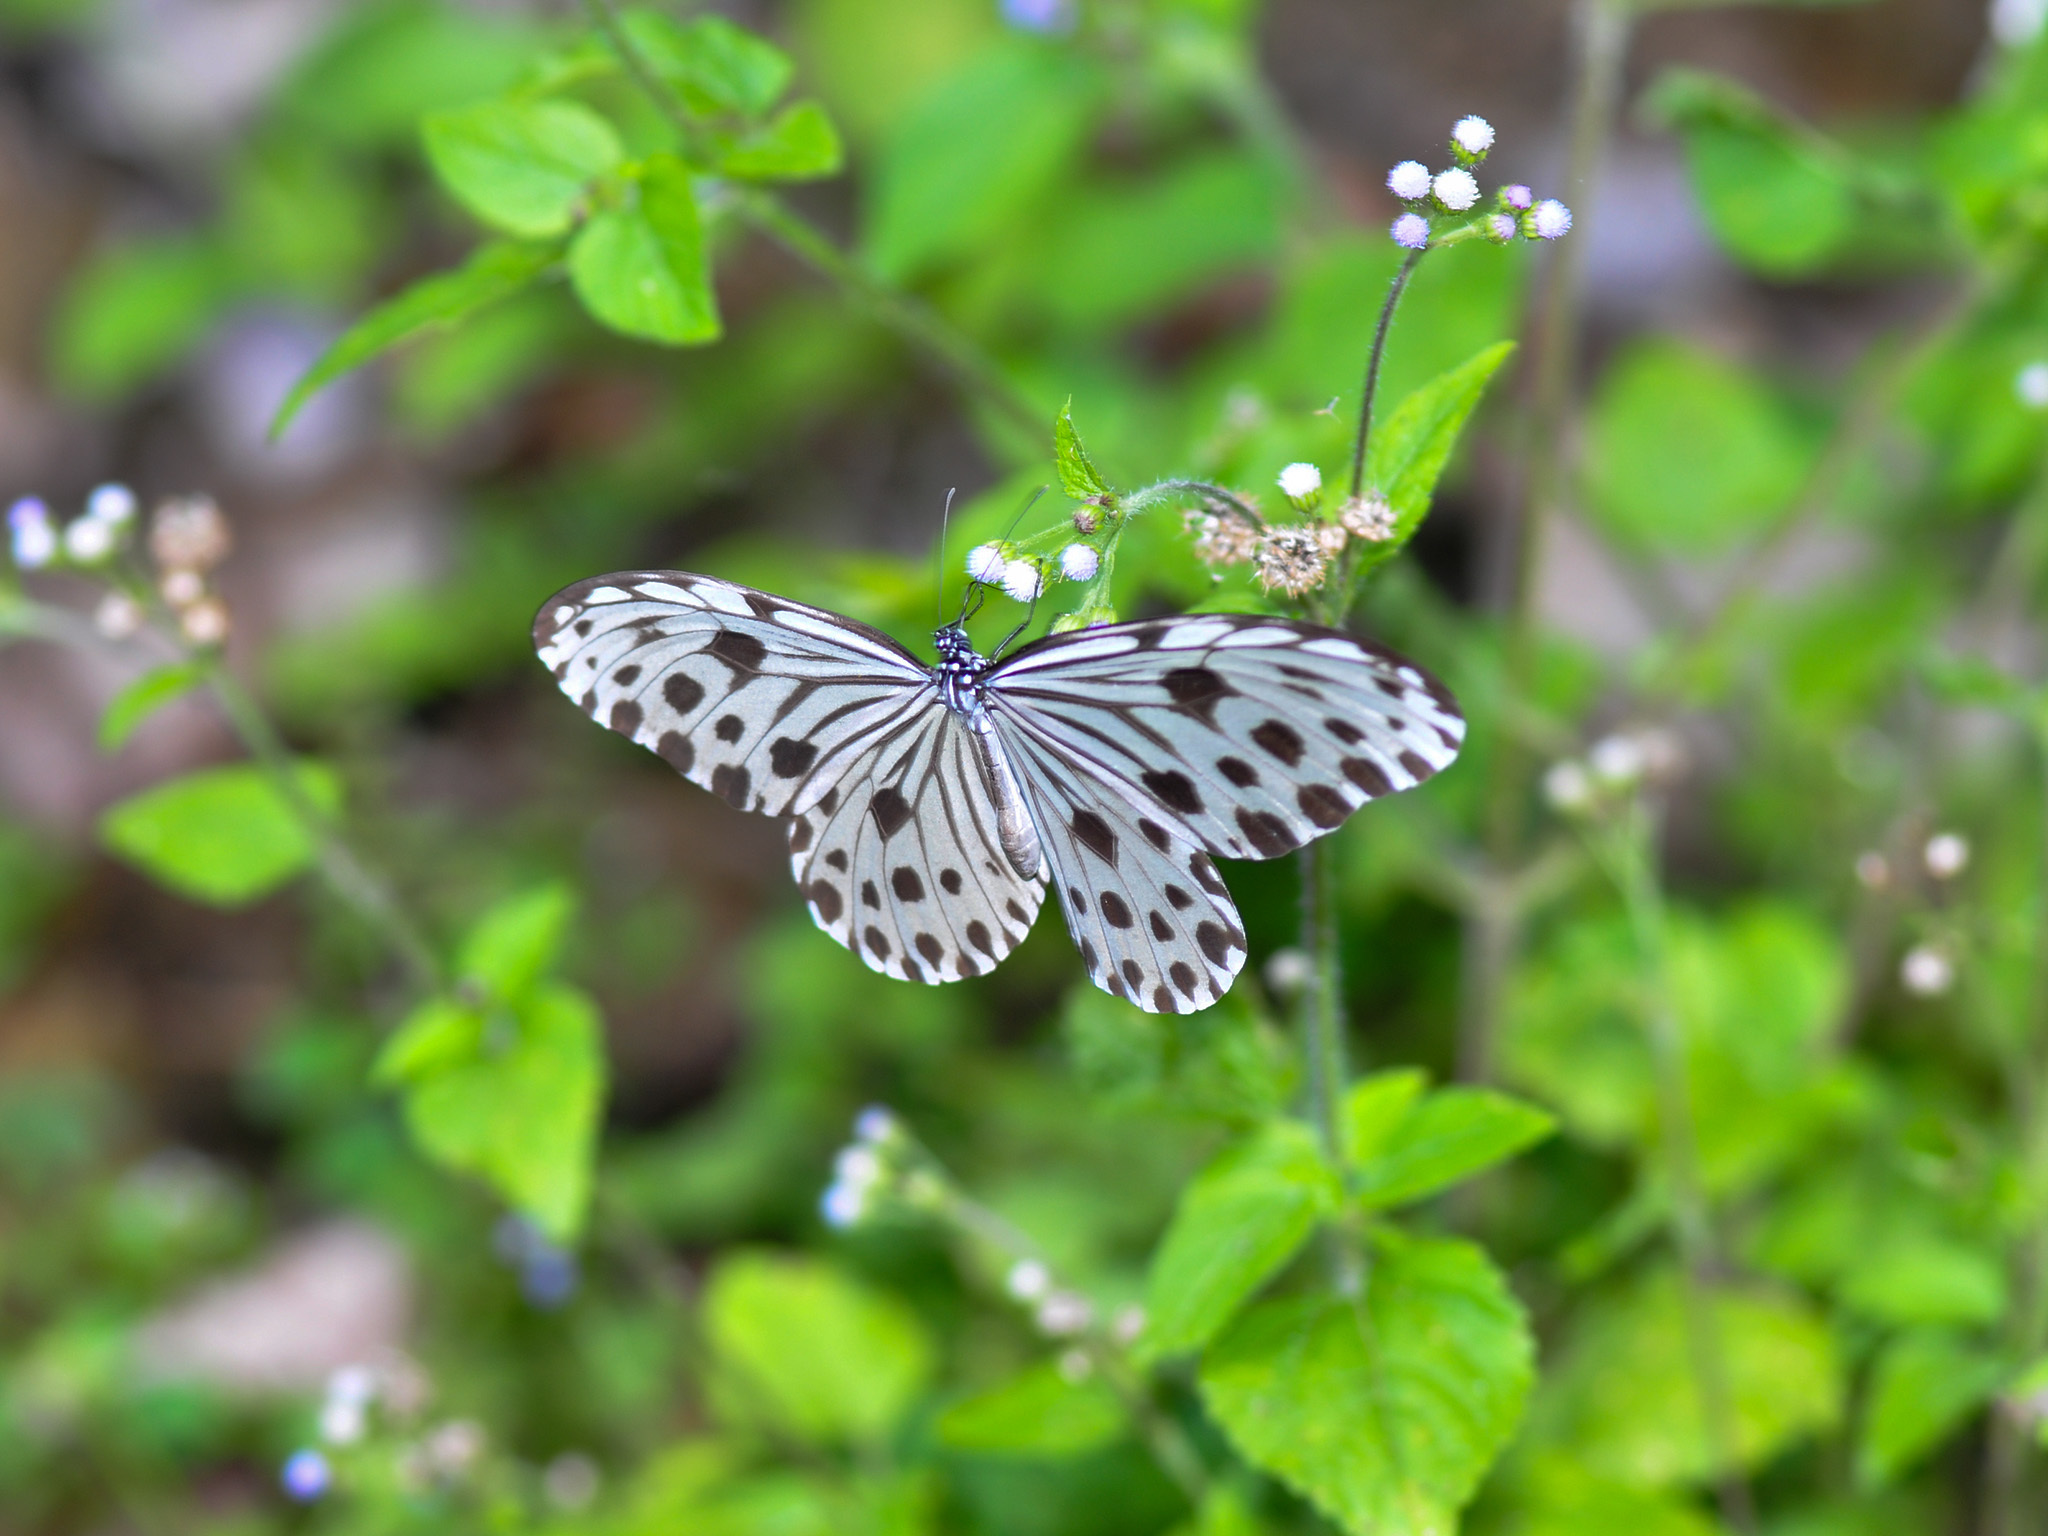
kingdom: Animalia
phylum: Arthropoda
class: Insecta
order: Lepidoptera
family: Nymphalidae
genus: Ideopsis
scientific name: Ideopsis gaura
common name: Smaller wood nymph
